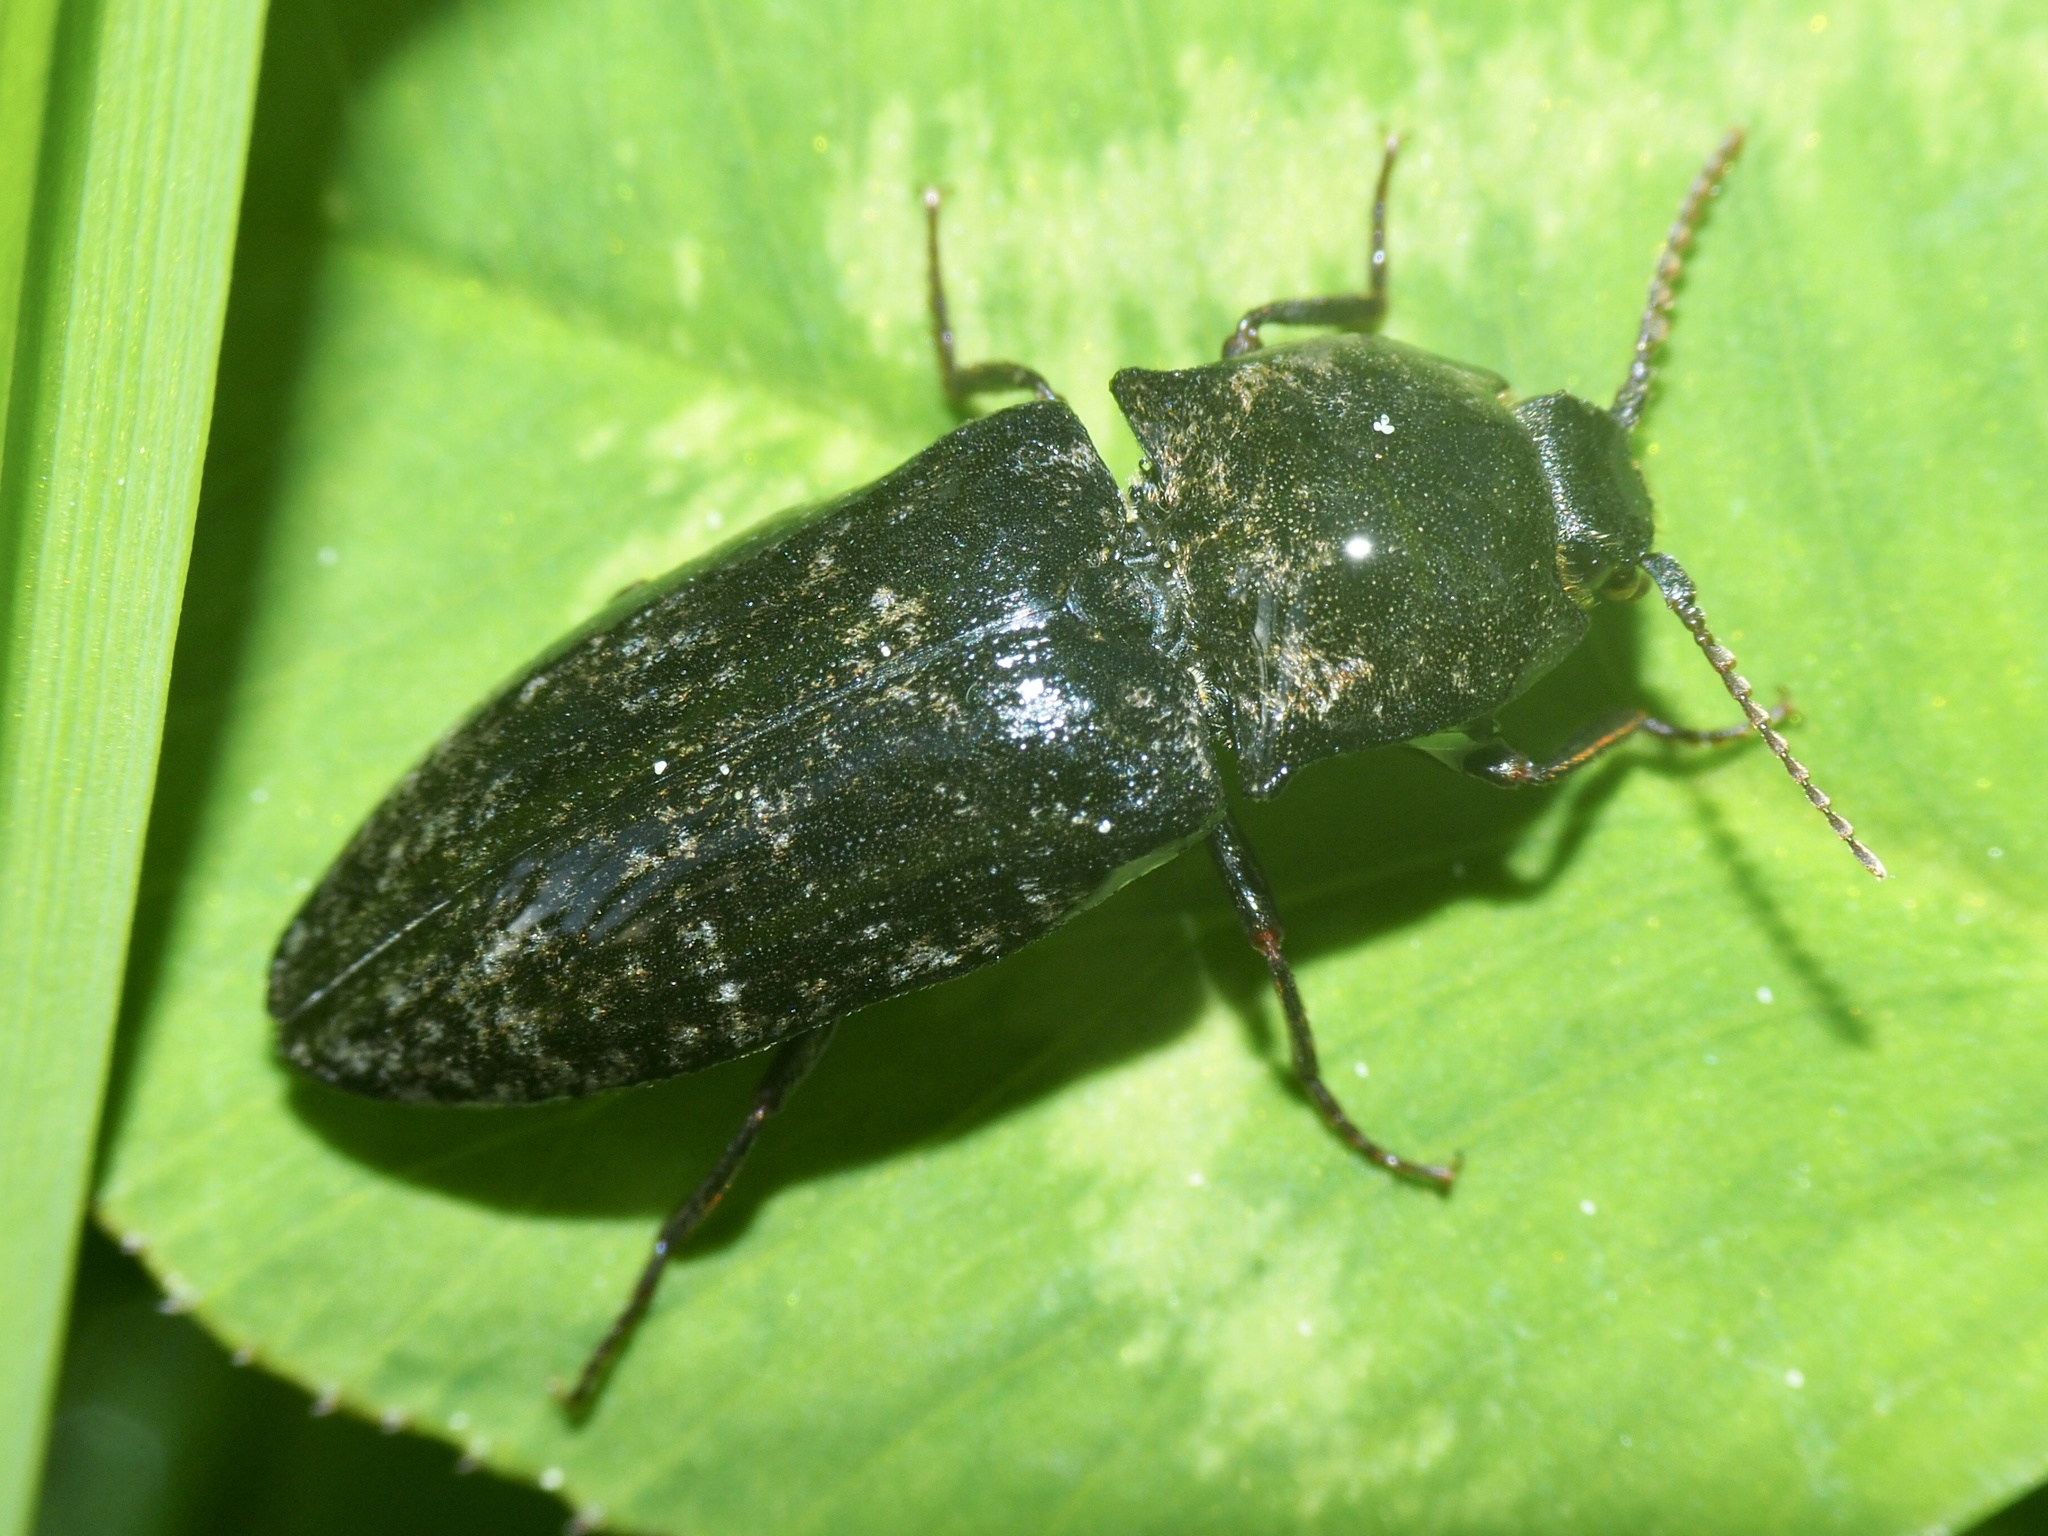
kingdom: Animalia
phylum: Arthropoda
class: Insecta
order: Coleoptera
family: Elateridae
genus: Agrypnus
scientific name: Agrypnus murinus
